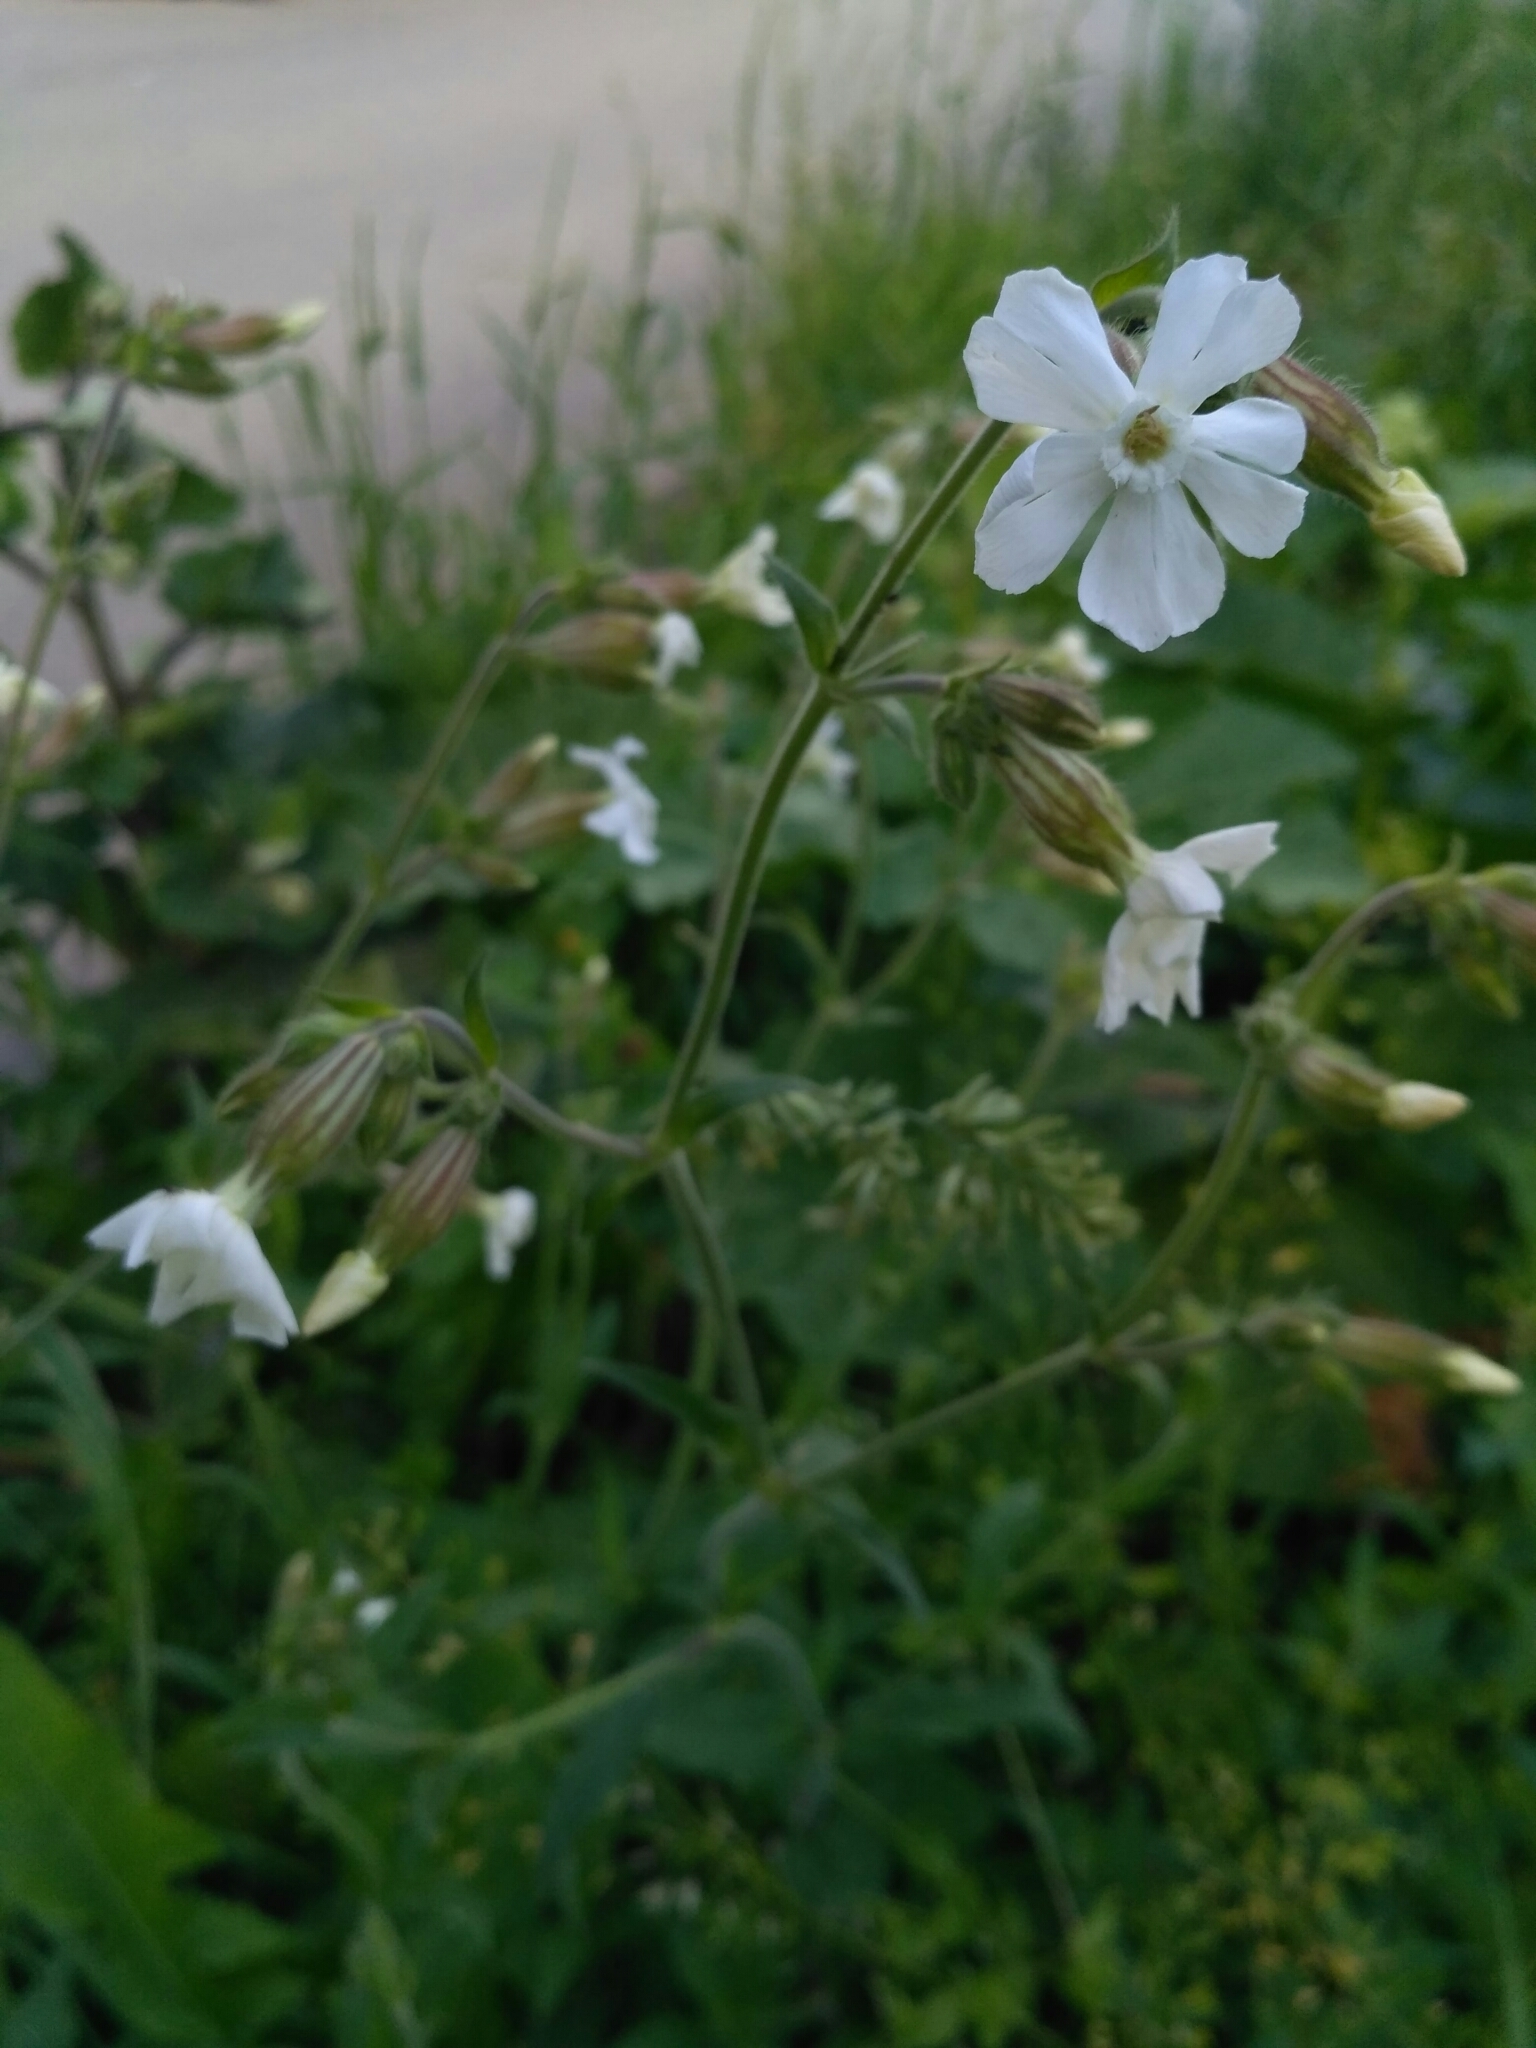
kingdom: Plantae
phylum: Tracheophyta
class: Magnoliopsida
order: Caryophyllales
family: Caryophyllaceae
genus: Silene
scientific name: Silene latifolia
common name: White campion
